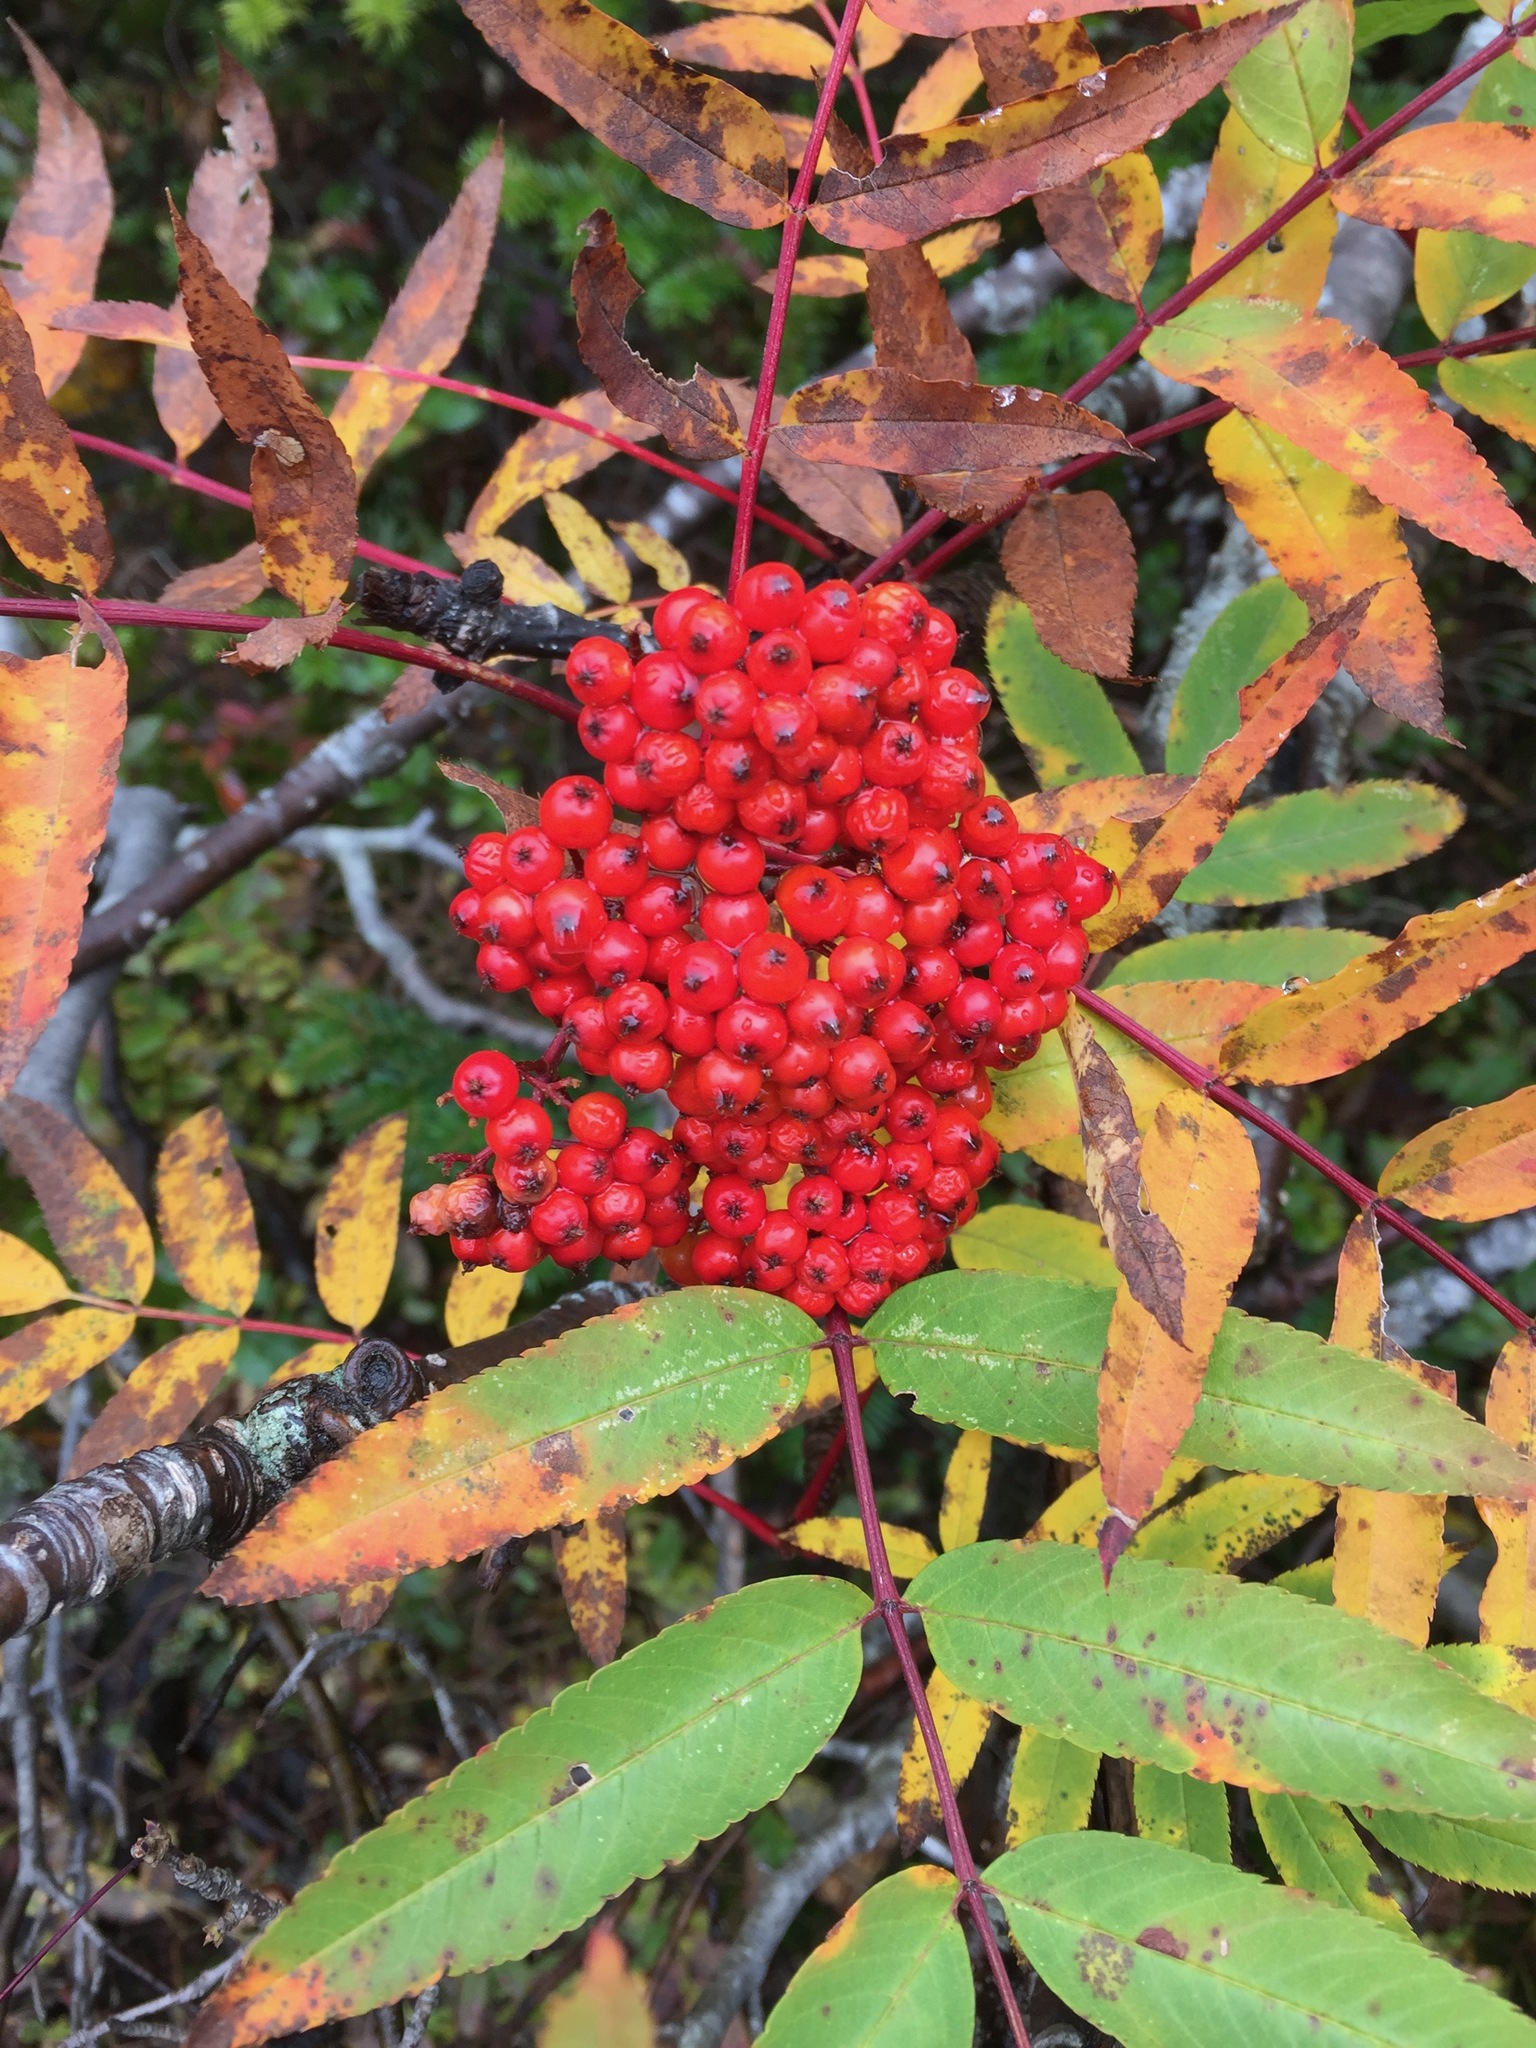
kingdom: Plantae
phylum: Tracheophyta
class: Magnoliopsida
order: Rosales
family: Rosaceae
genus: Sorbus
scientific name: Sorbus americana
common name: American mountain-ash
